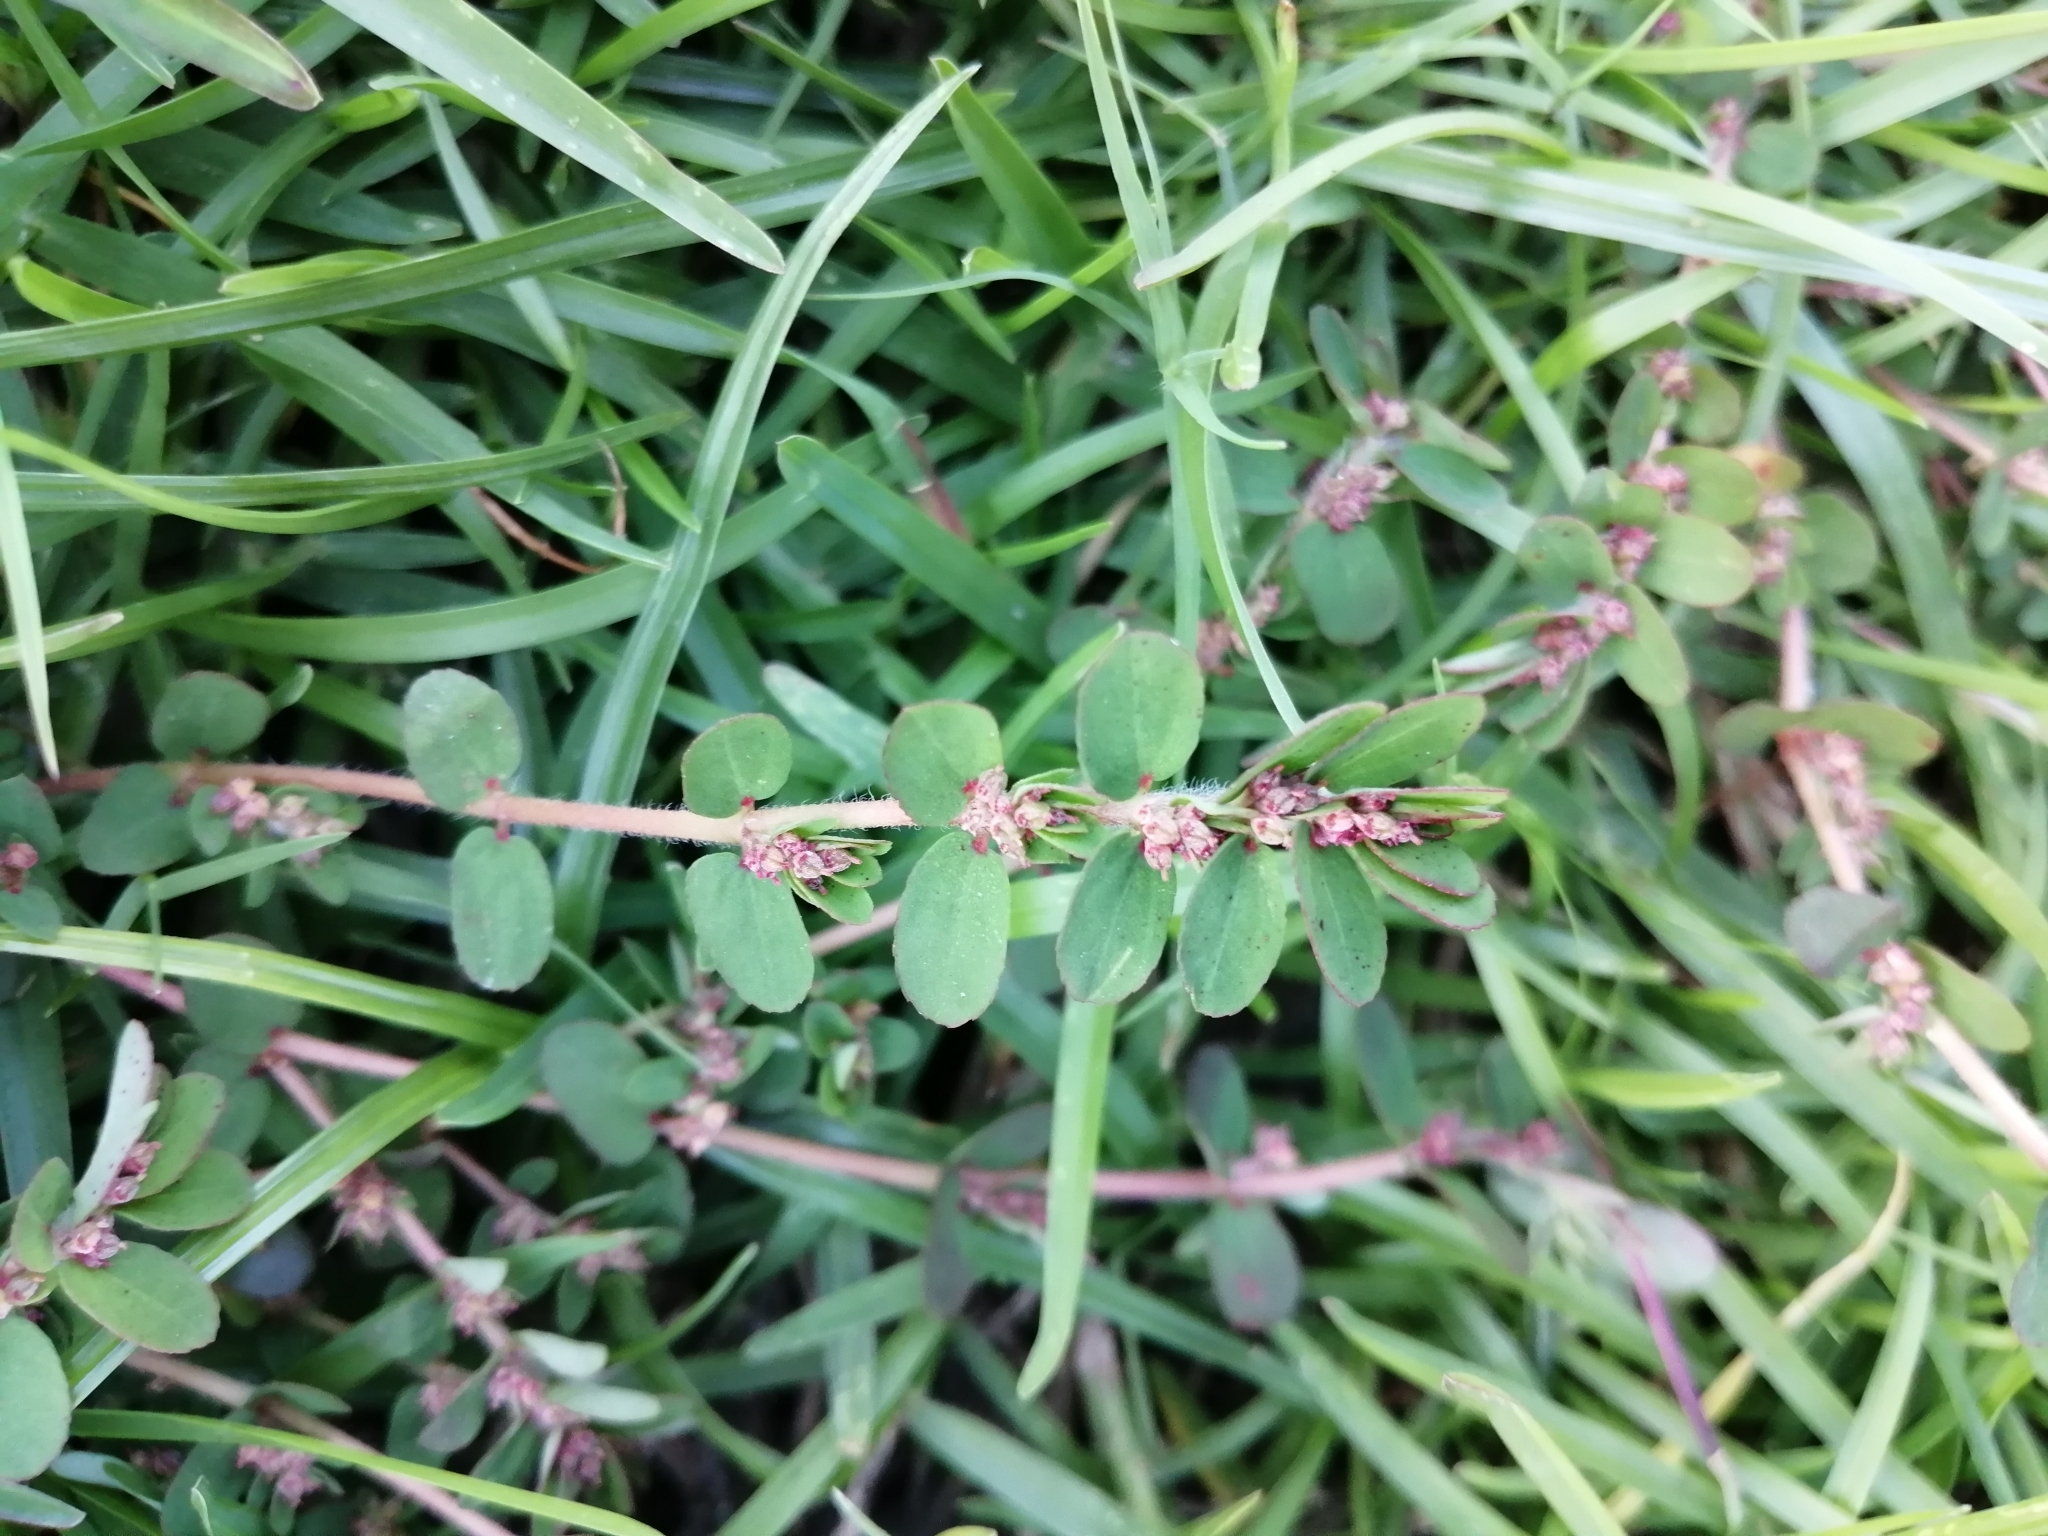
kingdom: Plantae
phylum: Tracheophyta
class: Magnoliopsida
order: Malpighiales
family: Euphorbiaceae
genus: Euphorbia
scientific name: Euphorbia thymifolia
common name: Gulf sandmat
